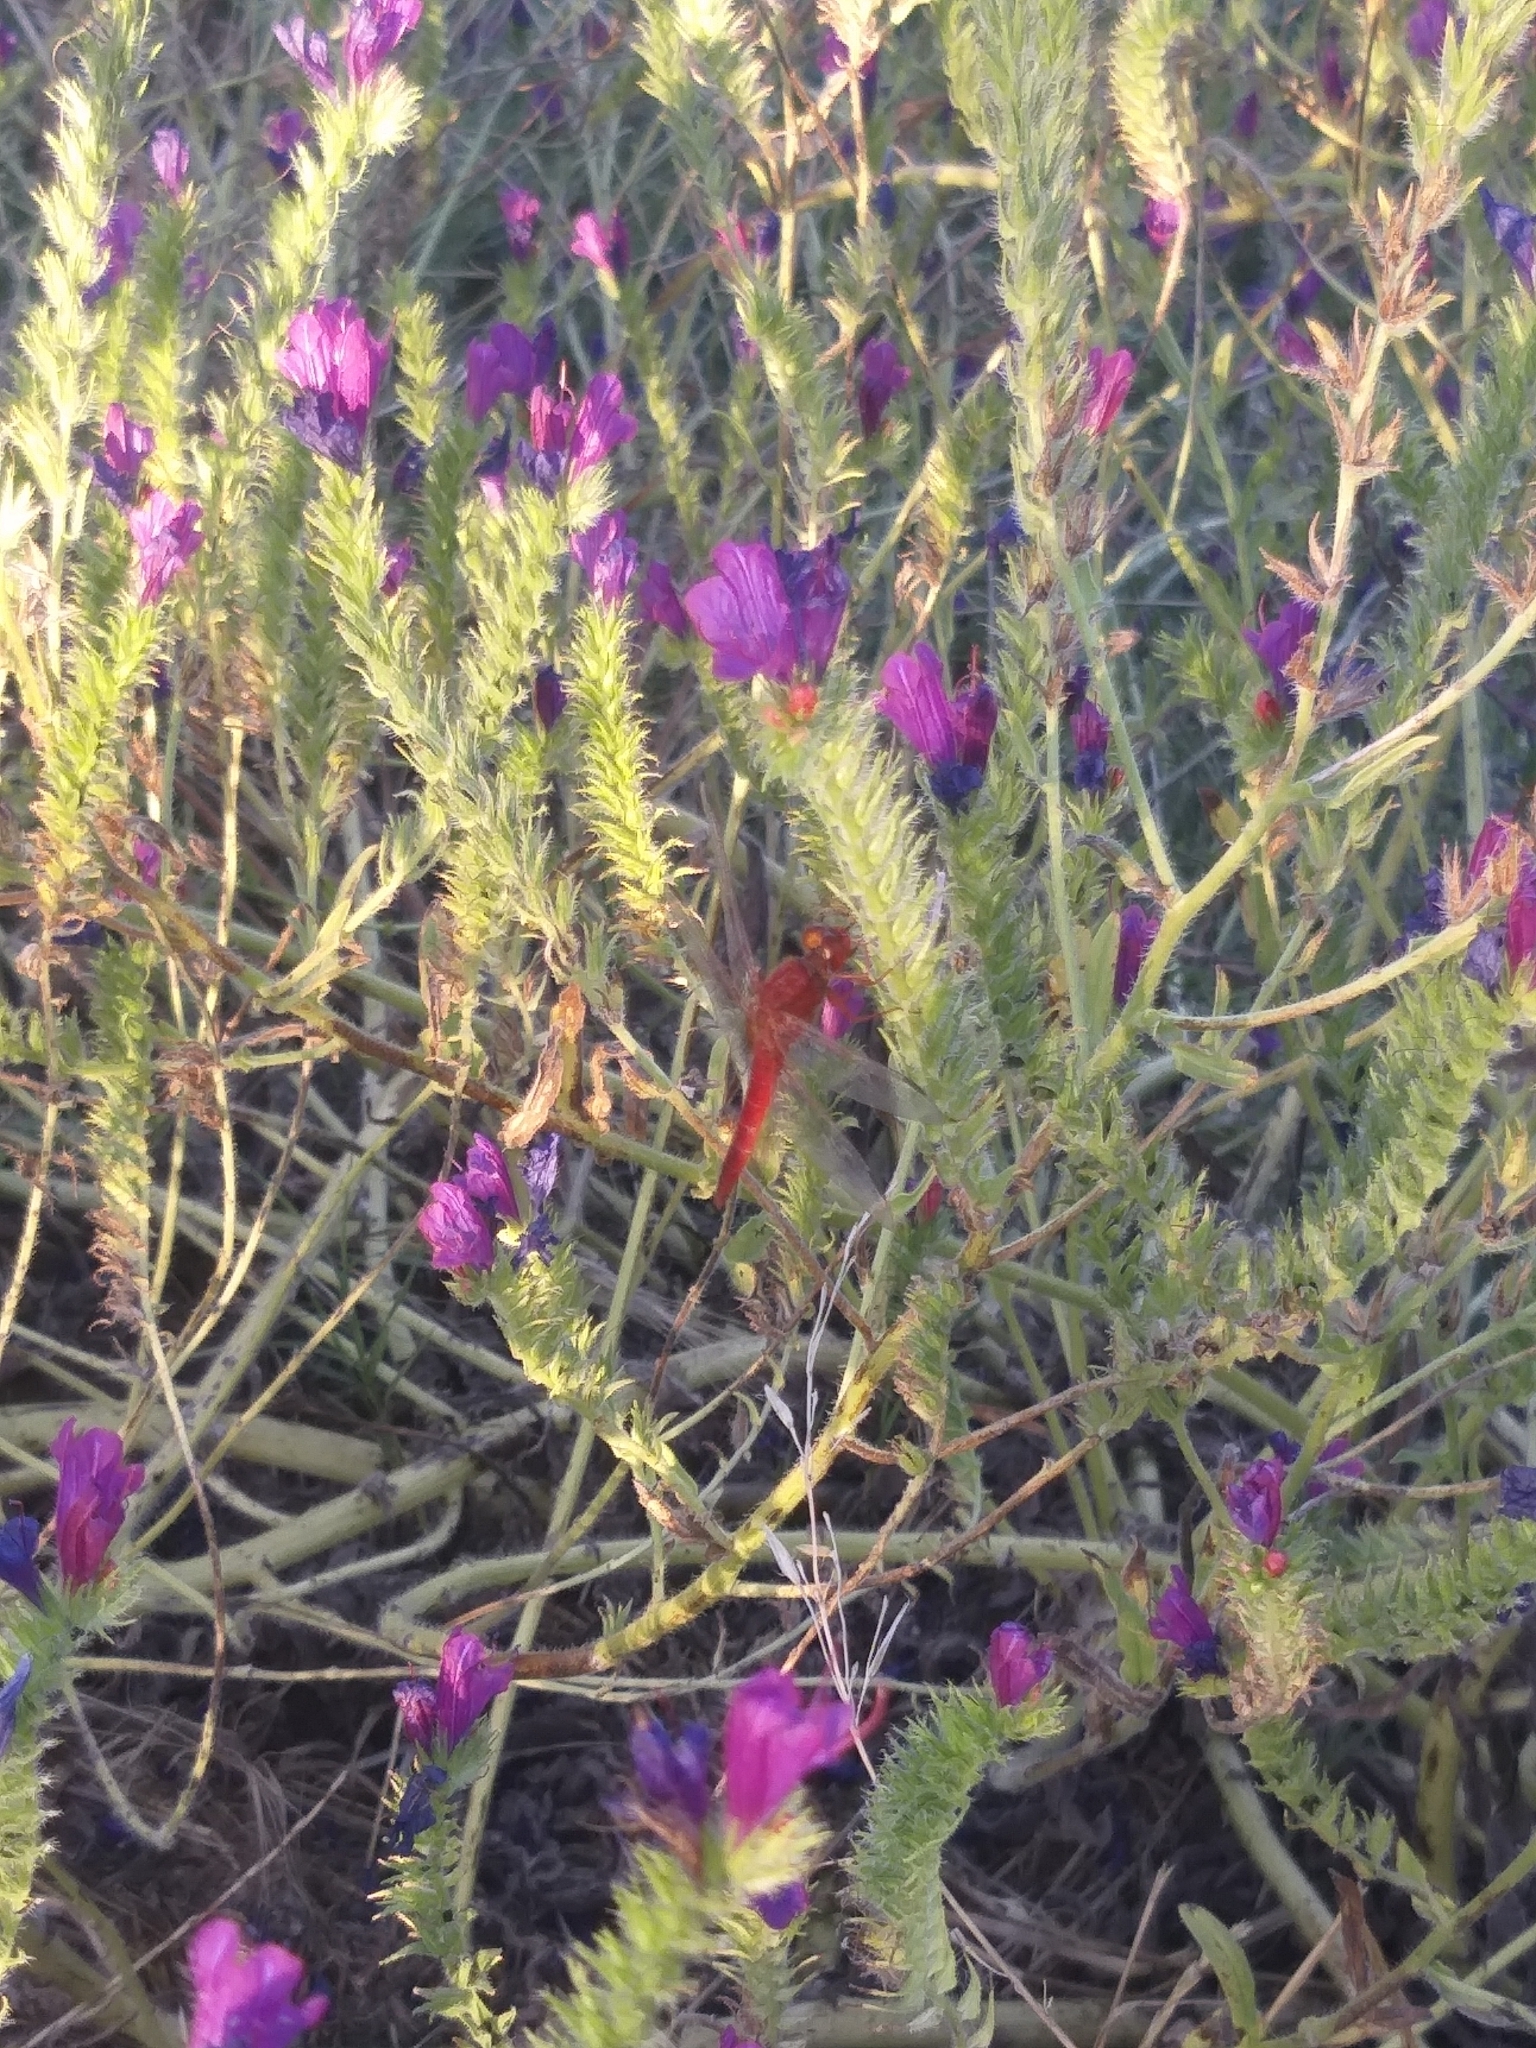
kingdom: Animalia
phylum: Arthropoda
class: Insecta
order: Odonata
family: Libellulidae
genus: Crocothemis
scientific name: Crocothemis erythraea
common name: Scarlet dragonfly
